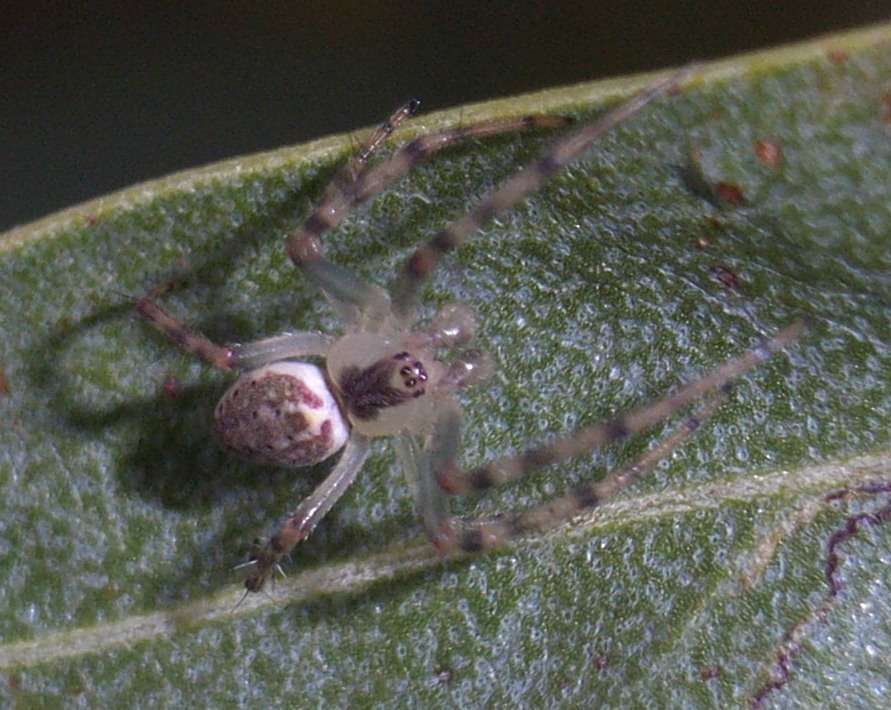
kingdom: Animalia
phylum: Arthropoda
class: Arachnida
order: Araneae
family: Araneidae
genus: Araneus
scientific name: Araneus talipedatus
